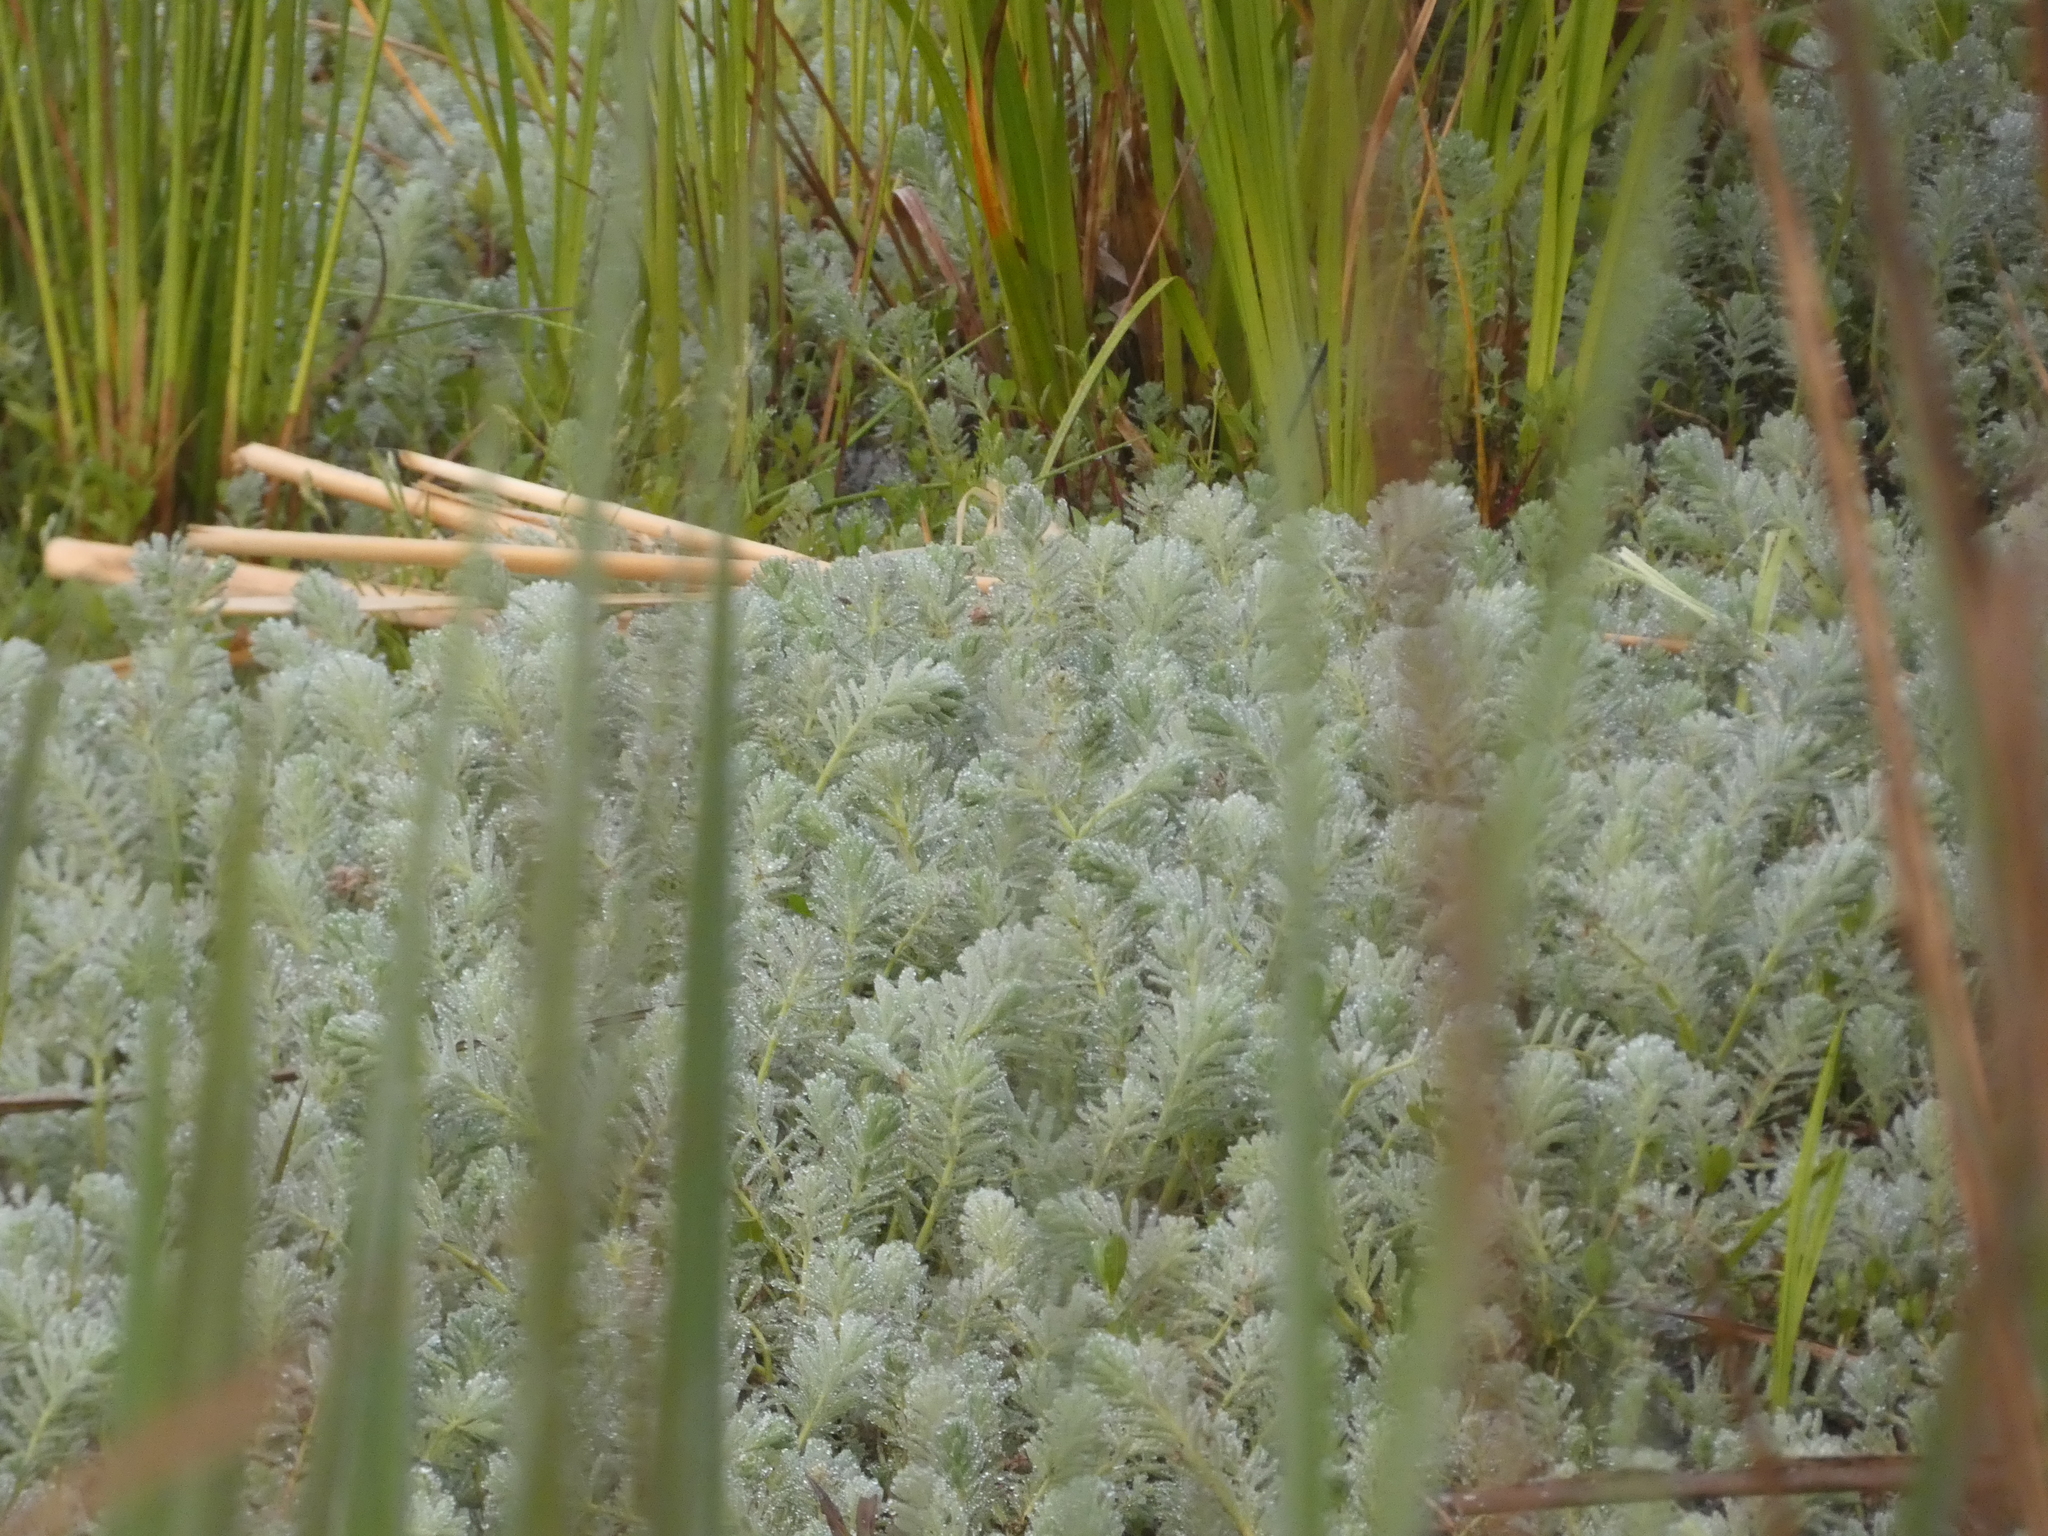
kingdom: Plantae
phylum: Tracheophyta
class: Magnoliopsida
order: Saxifragales
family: Haloragaceae
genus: Myriophyllum
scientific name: Myriophyllum aquaticum
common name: Parrot's feather
